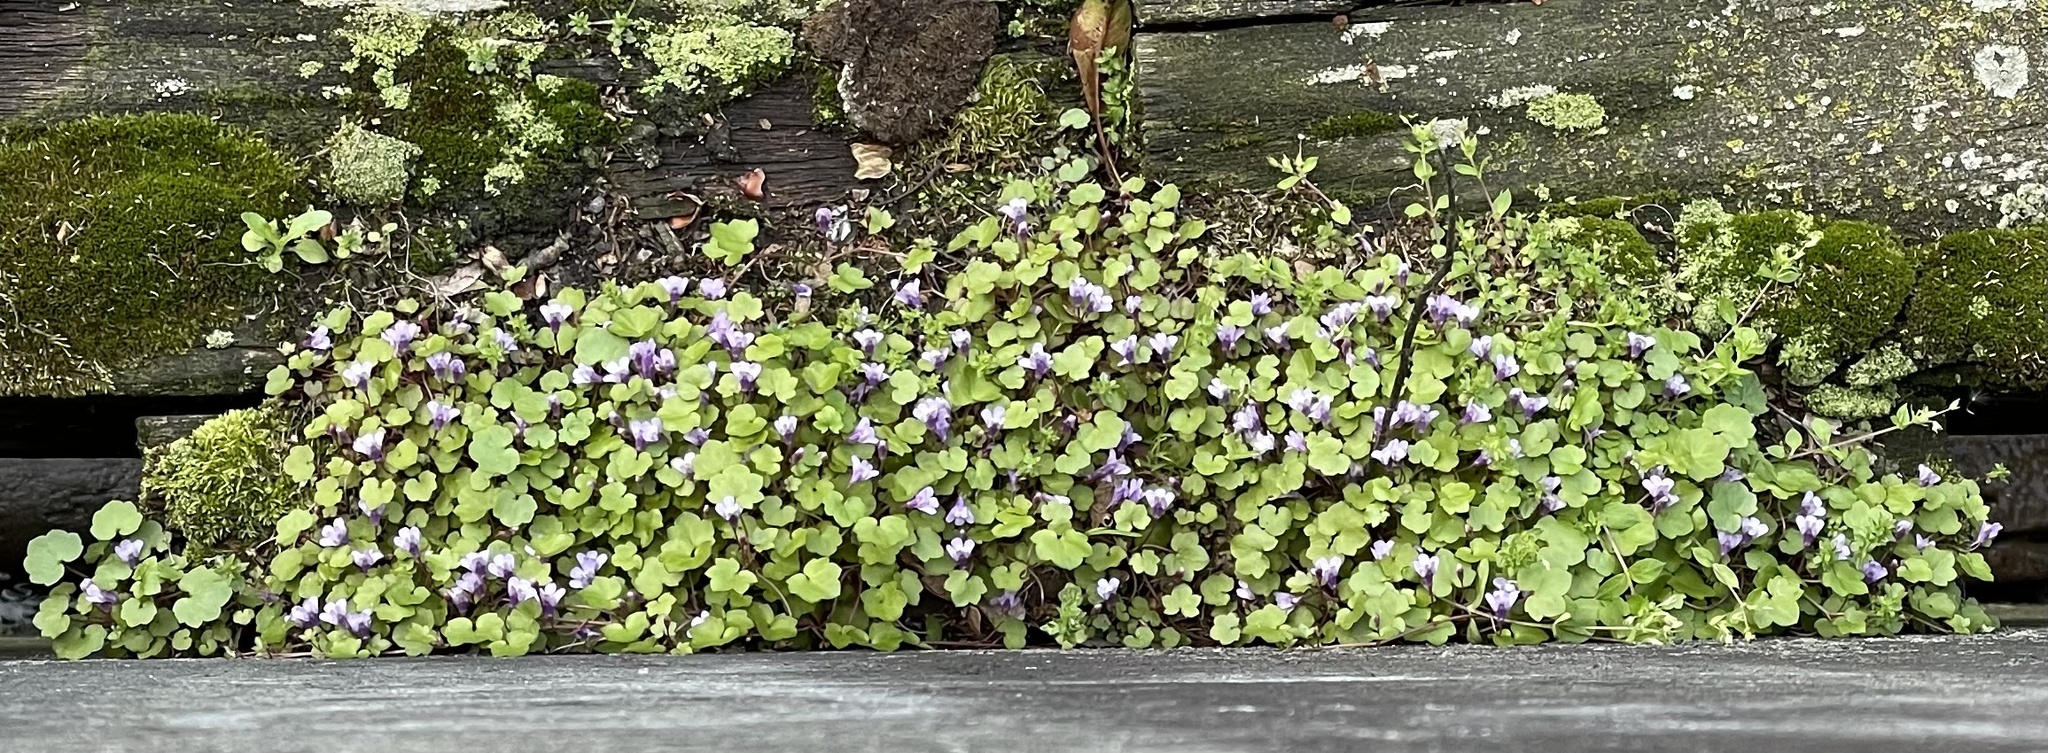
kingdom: Plantae
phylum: Tracheophyta
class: Magnoliopsida
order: Lamiales
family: Plantaginaceae
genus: Cymbalaria
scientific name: Cymbalaria muralis
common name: Ivy-leaved toadflax
